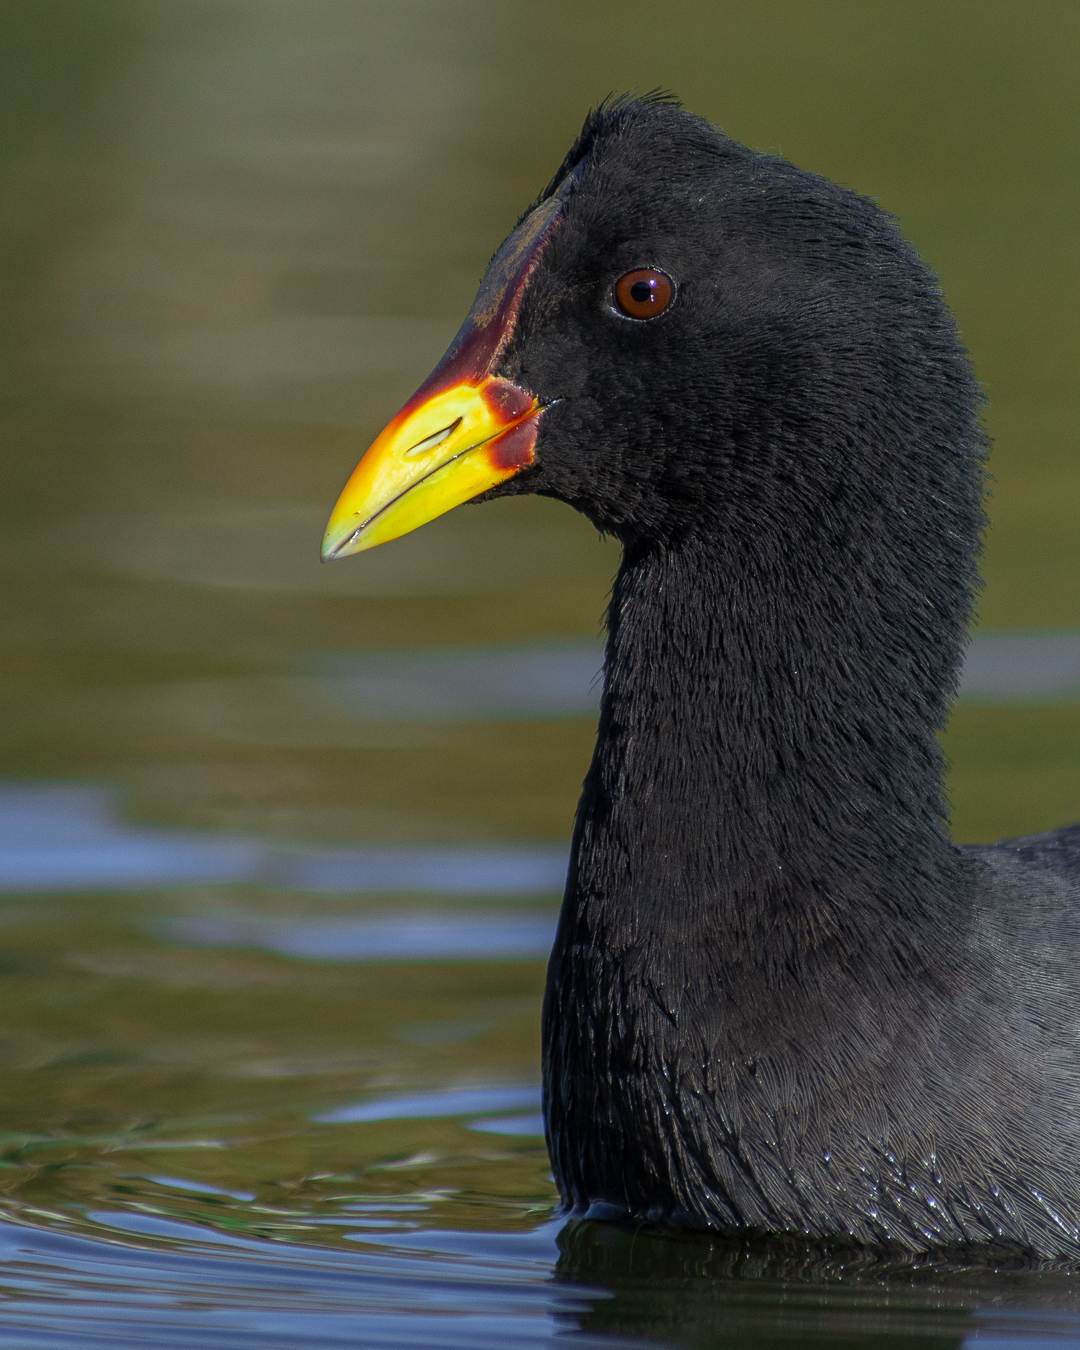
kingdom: Animalia
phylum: Chordata
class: Aves
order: Gruiformes
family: Rallidae
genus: Fulica
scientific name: Fulica rufifrons
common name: Red-fronted coot
